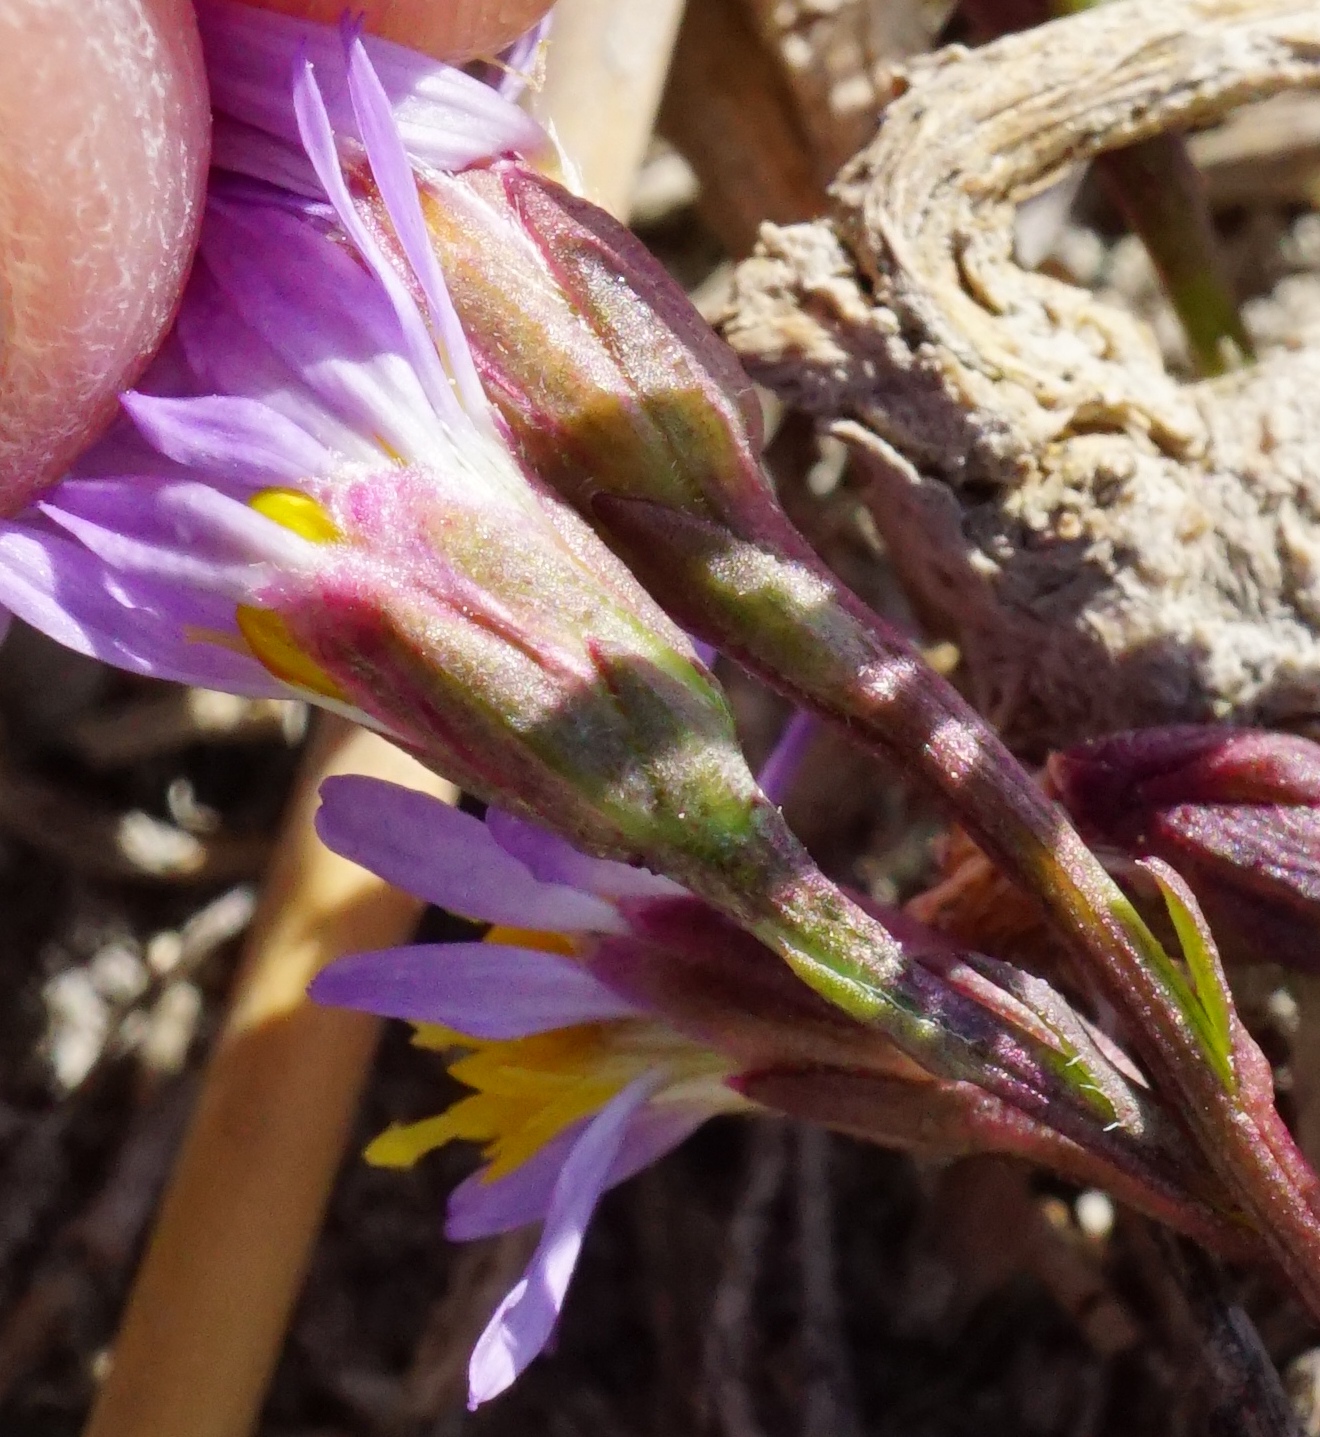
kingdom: Plantae
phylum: Tracheophyta
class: Magnoliopsida
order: Asterales
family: Asteraceae
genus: Tripolium
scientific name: Tripolium pannonicum
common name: Sea aster
